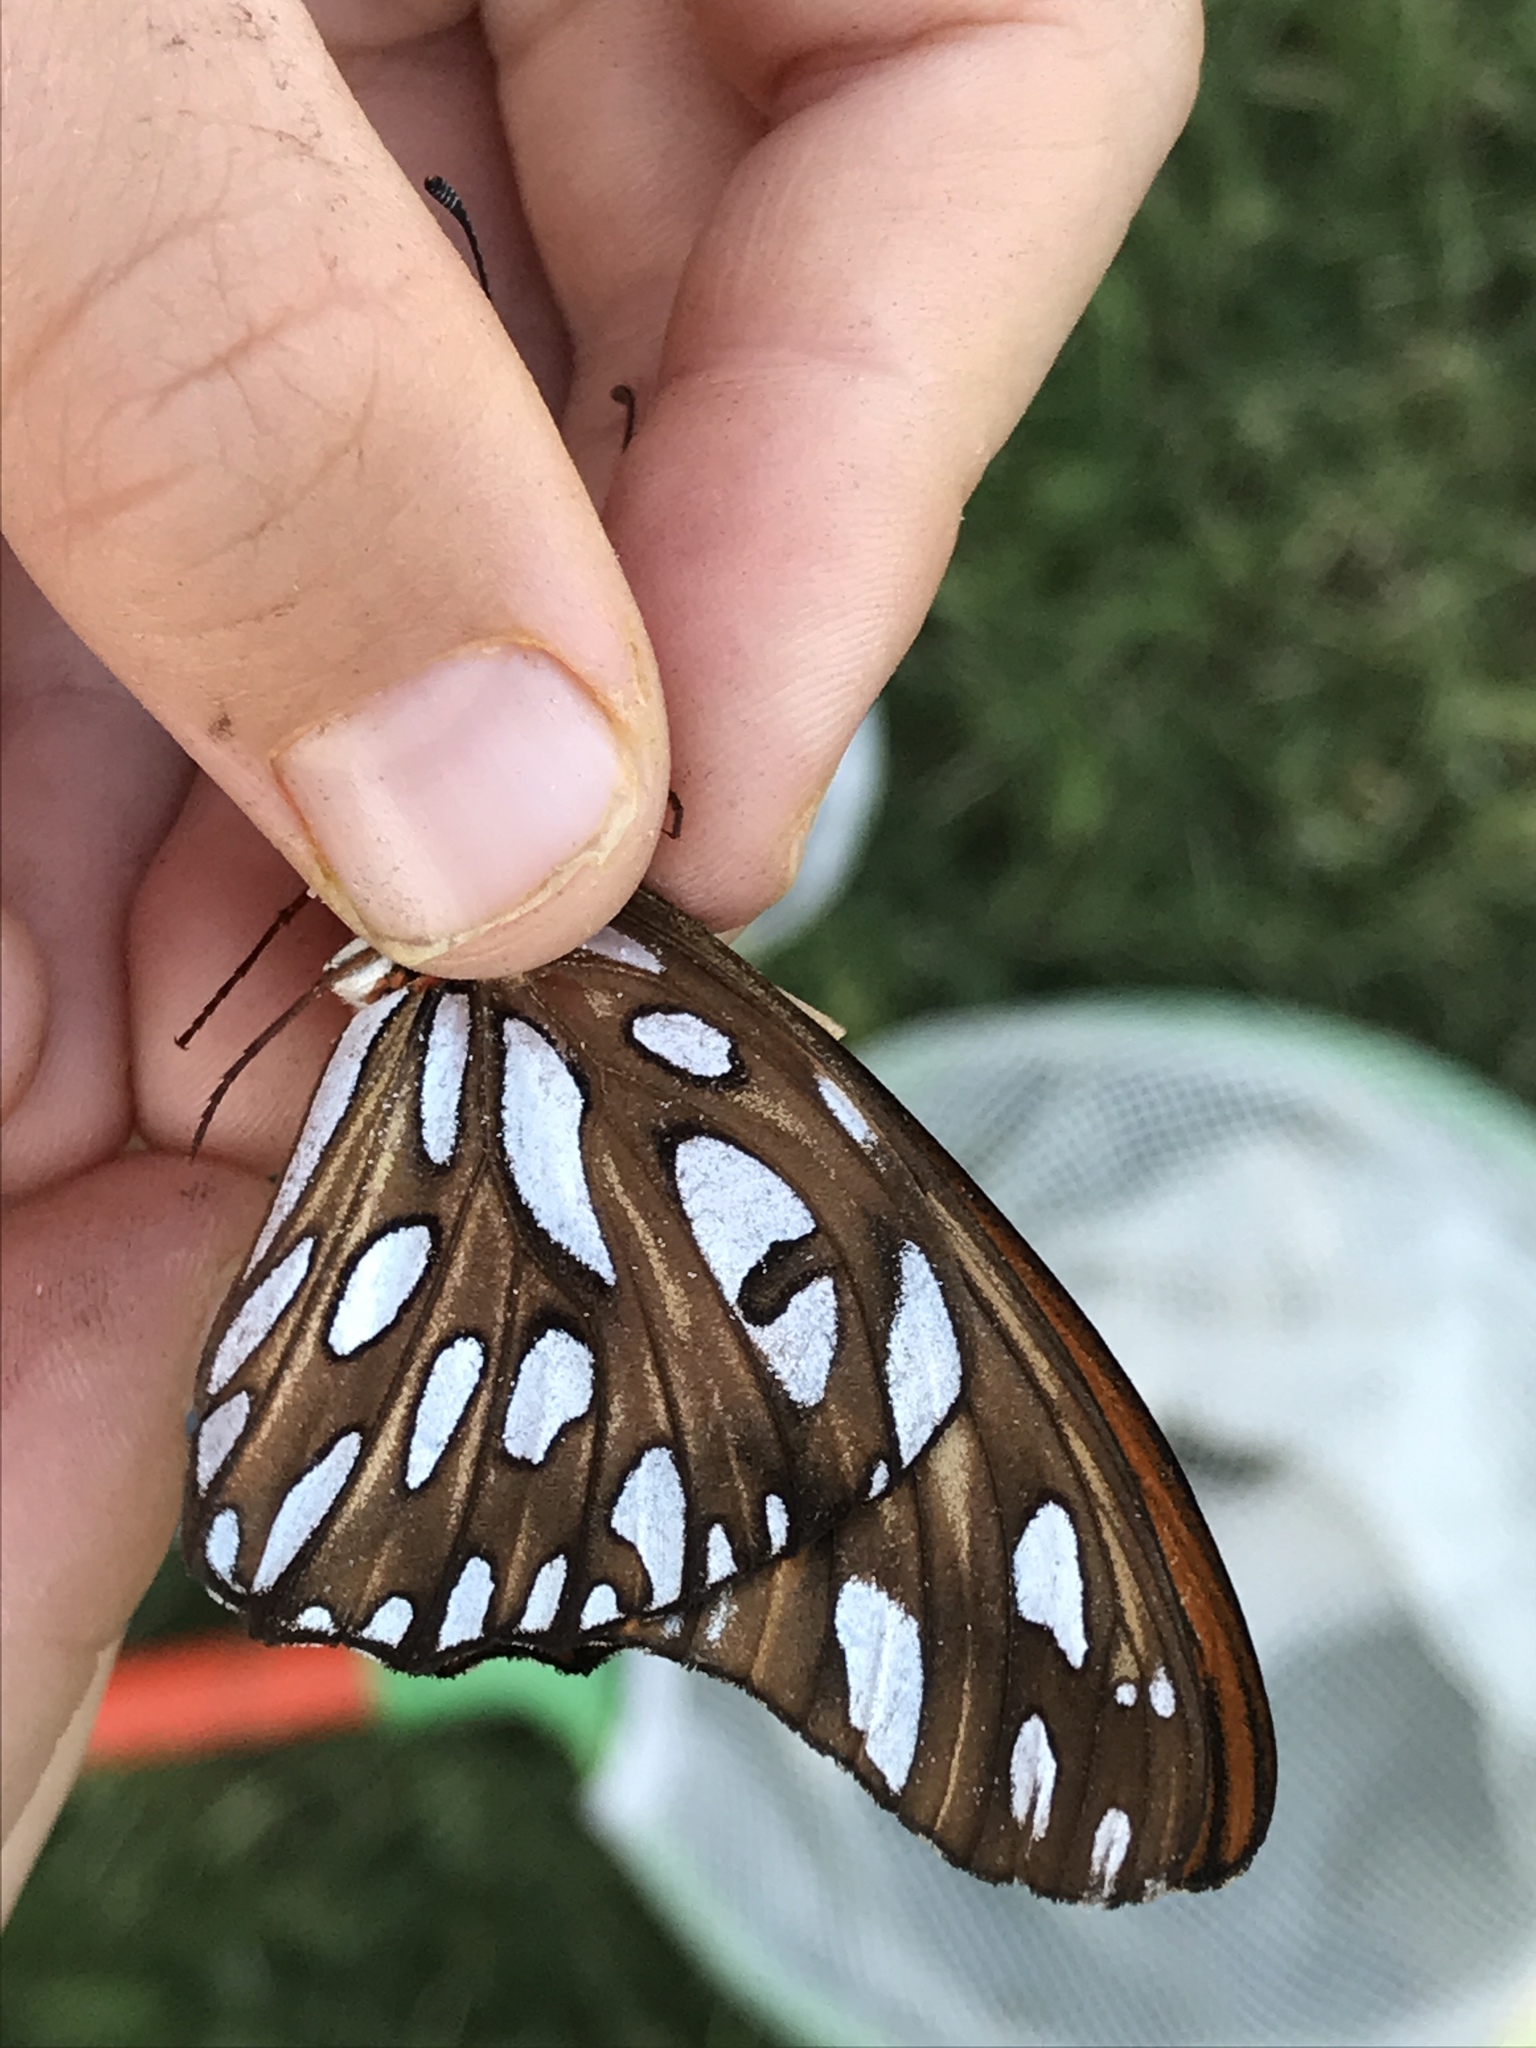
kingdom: Animalia
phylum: Arthropoda
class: Insecta
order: Lepidoptera
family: Nymphalidae
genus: Dione
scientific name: Dione vanillae
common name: Gulf fritillary
